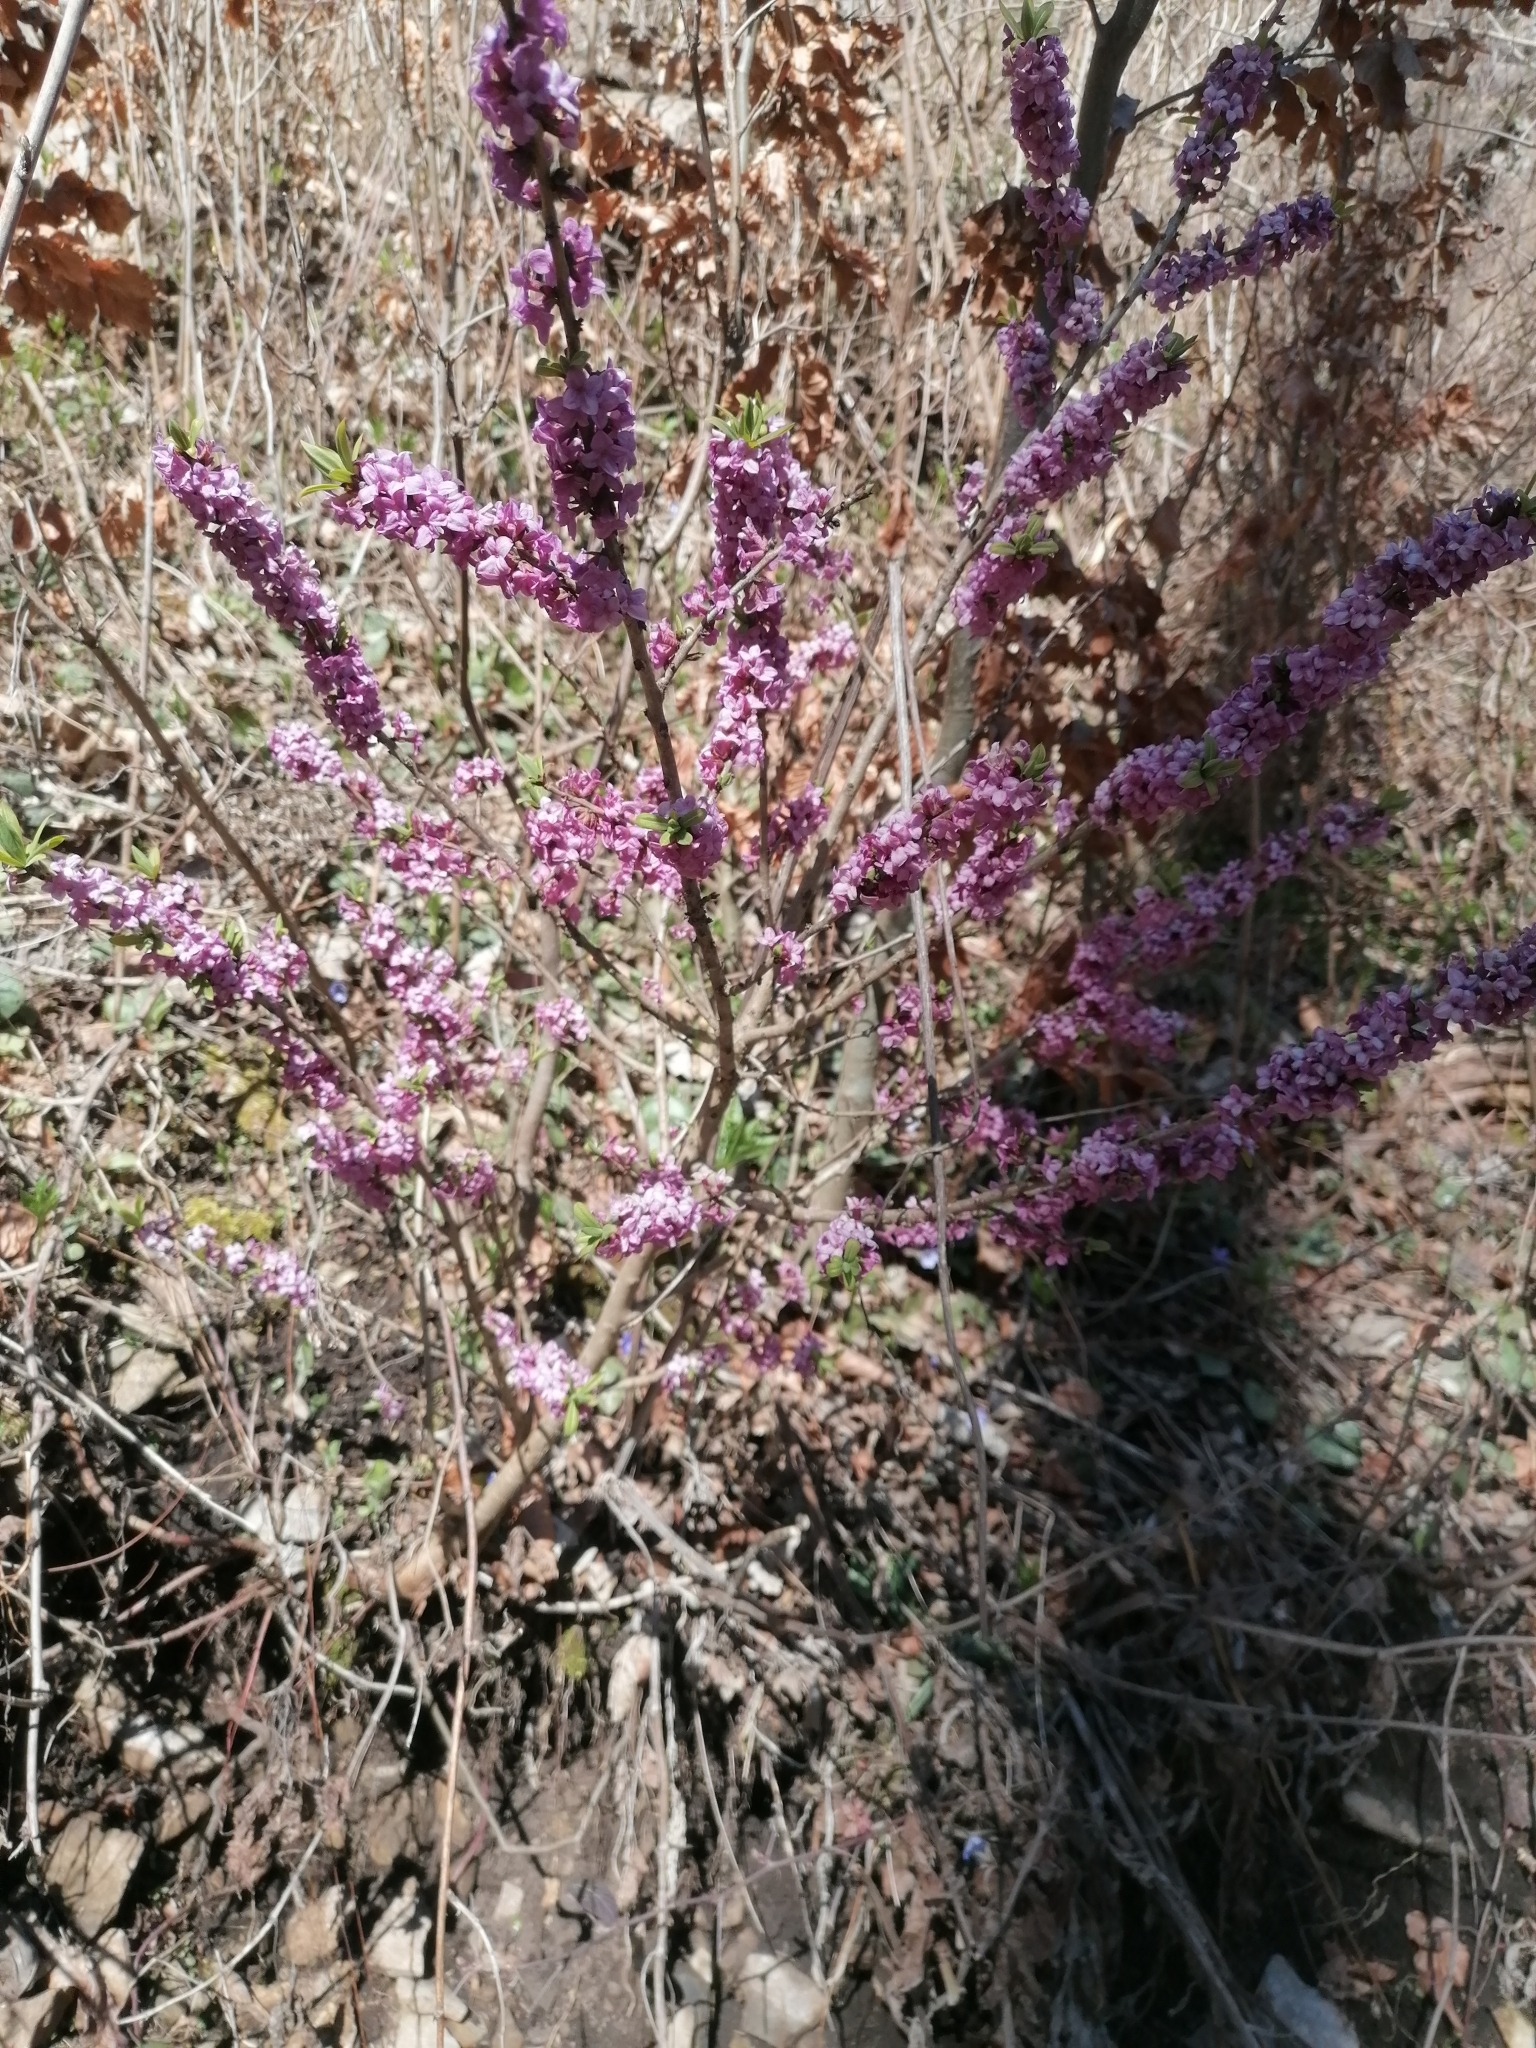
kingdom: Plantae
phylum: Tracheophyta
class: Magnoliopsida
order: Malvales
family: Thymelaeaceae
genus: Daphne
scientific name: Daphne mezereum
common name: Mezereon
